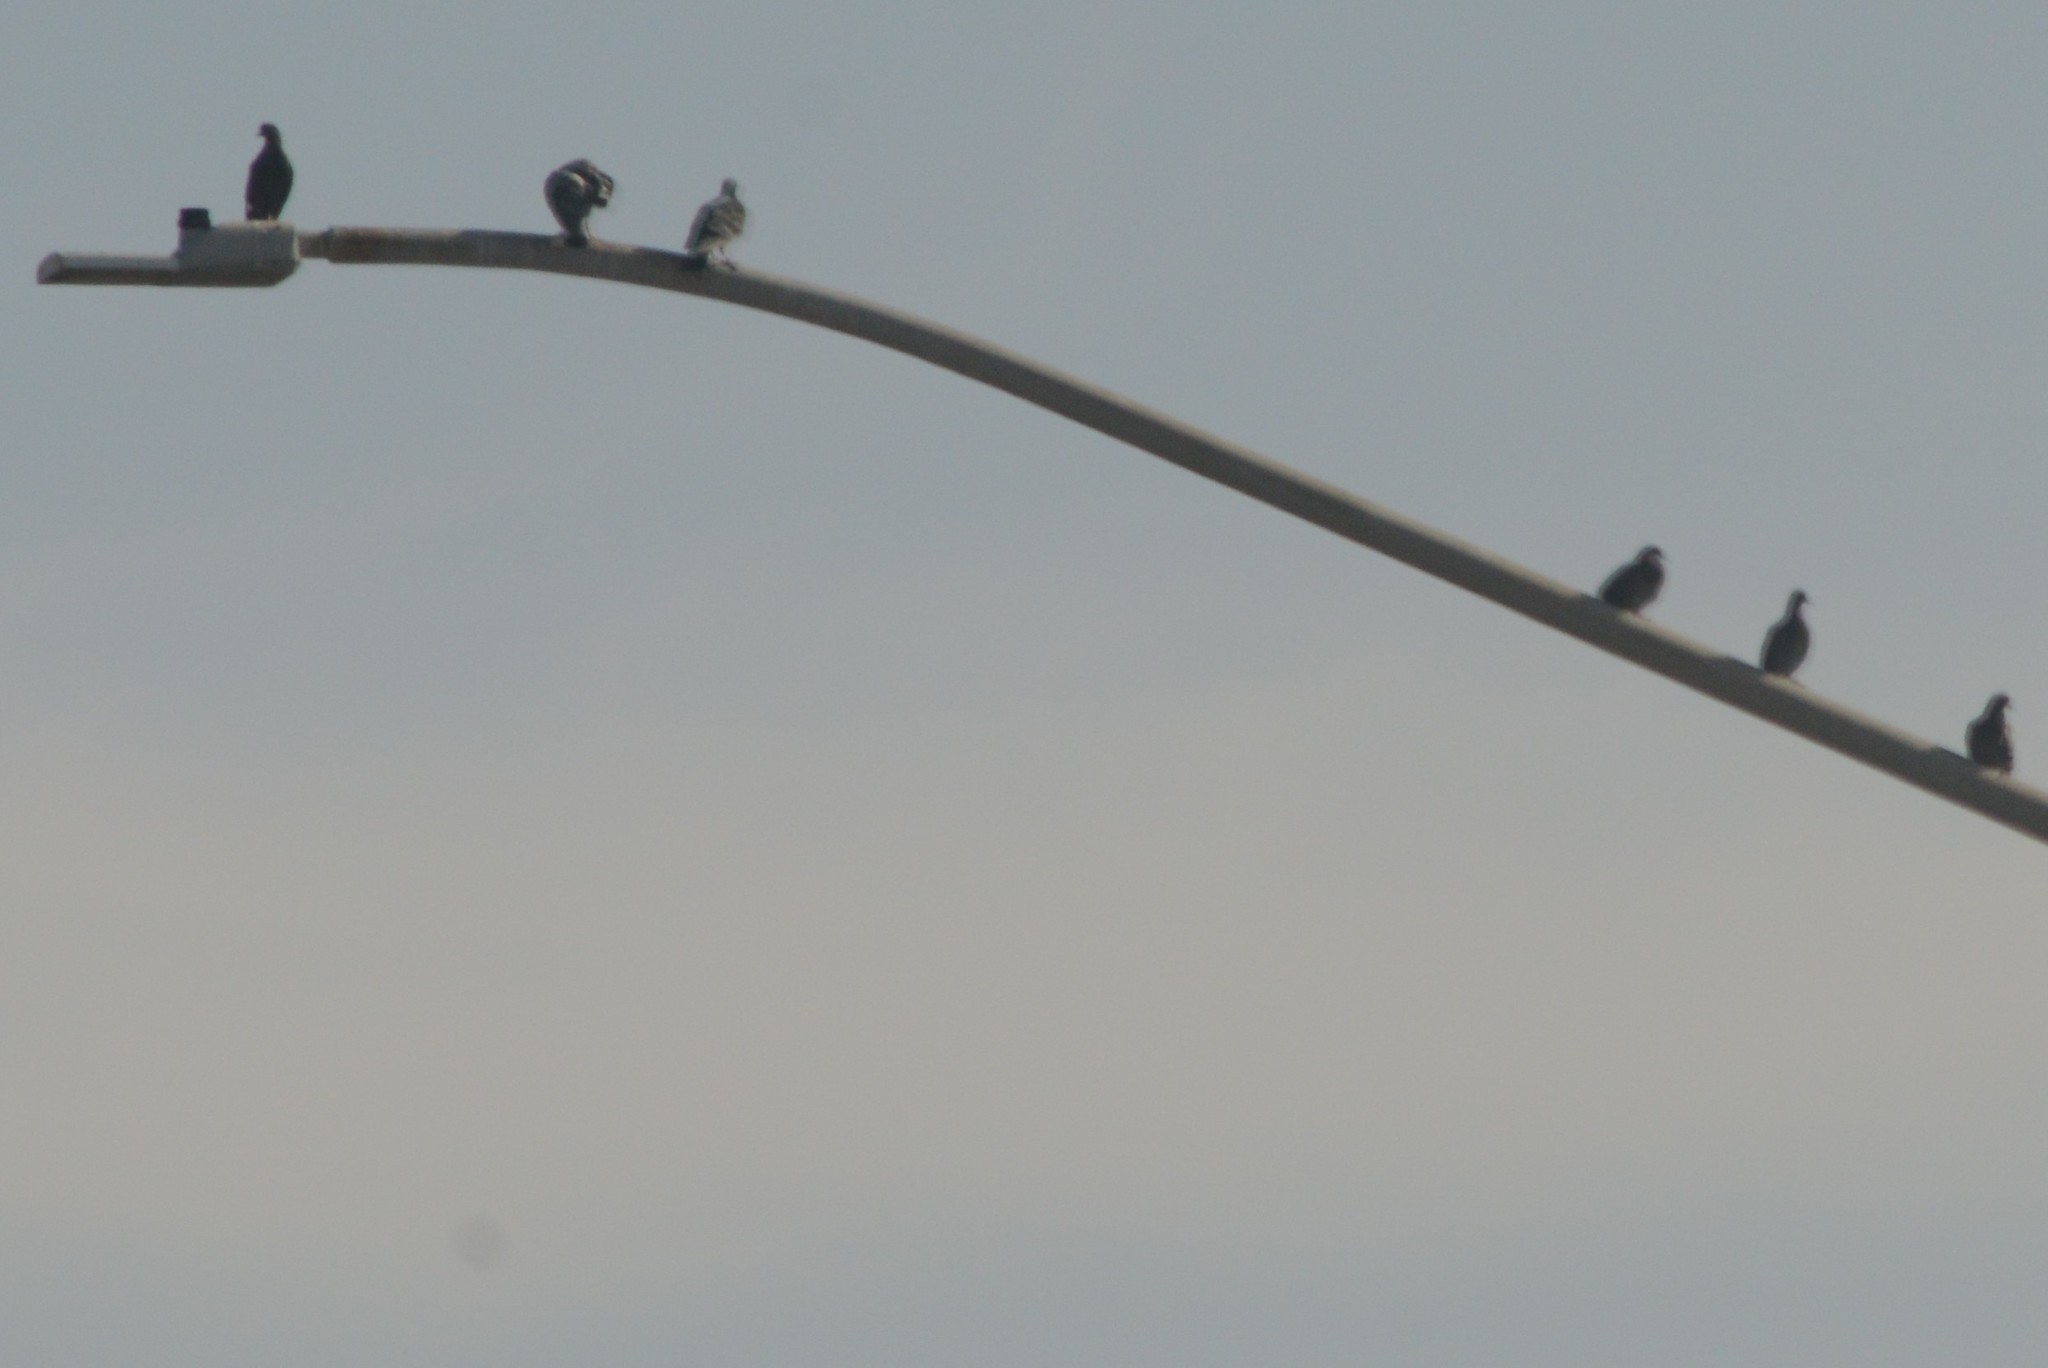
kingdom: Animalia
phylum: Chordata
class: Aves
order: Columbiformes
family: Columbidae
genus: Columba
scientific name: Columba livia
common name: Rock pigeon
